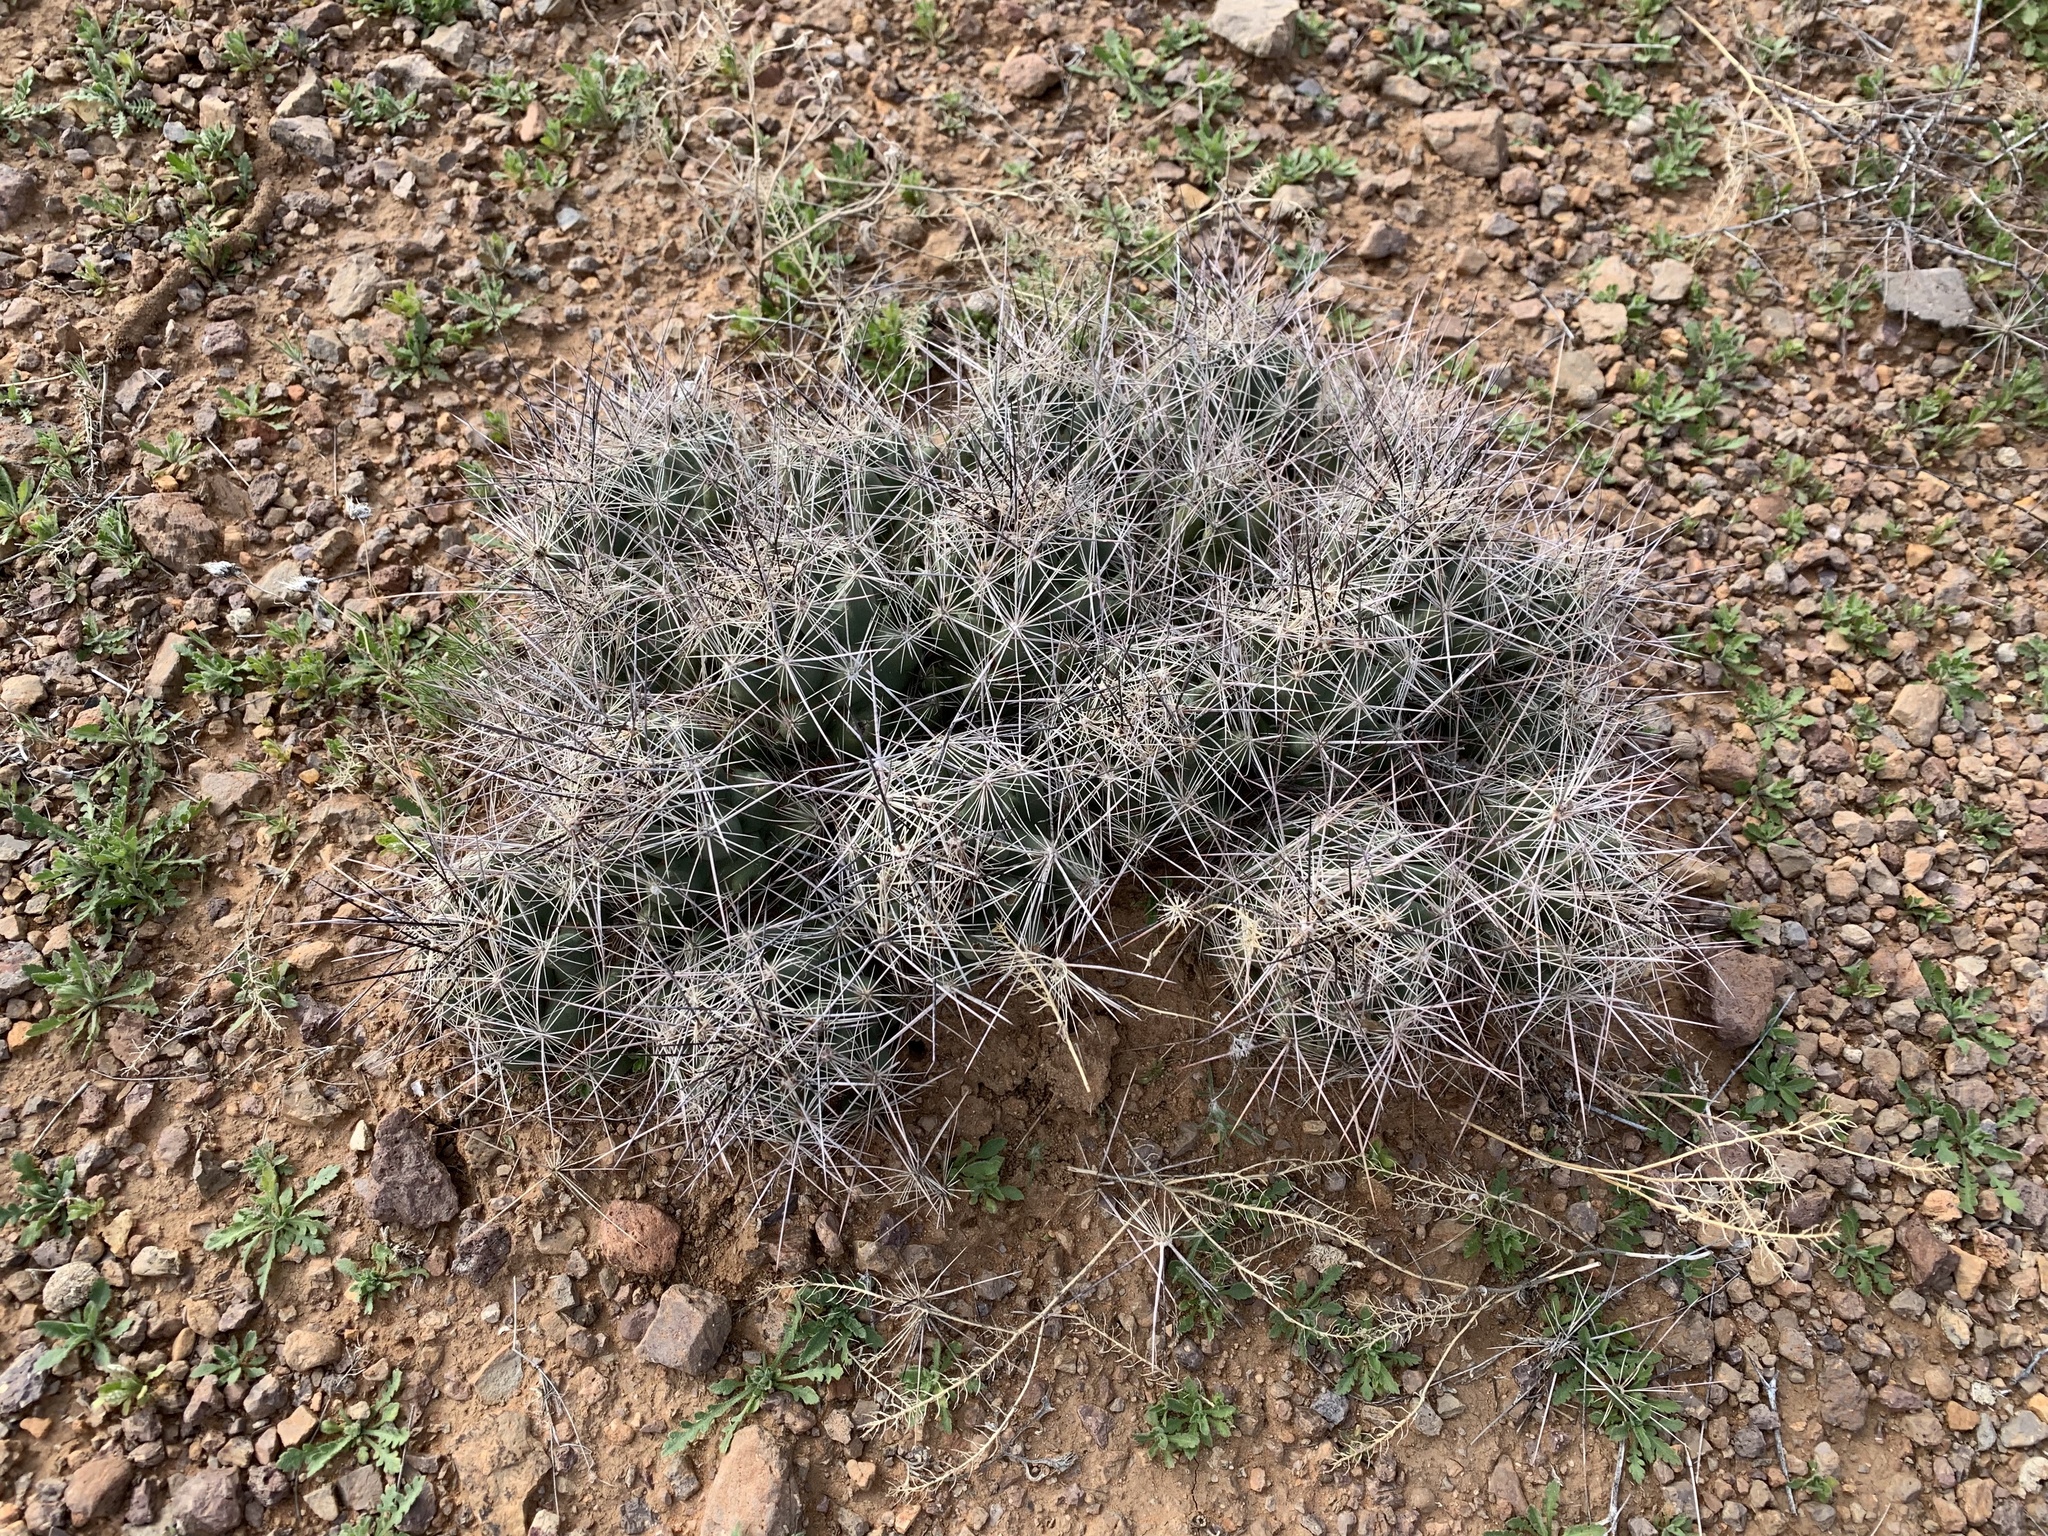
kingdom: Plantae
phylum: Tracheophyta
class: Magnoliopsida
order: Caryophyllales
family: Cactaceae
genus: Coryphantha
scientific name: Coryphantha macromeris
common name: Nipple beehive cactus
